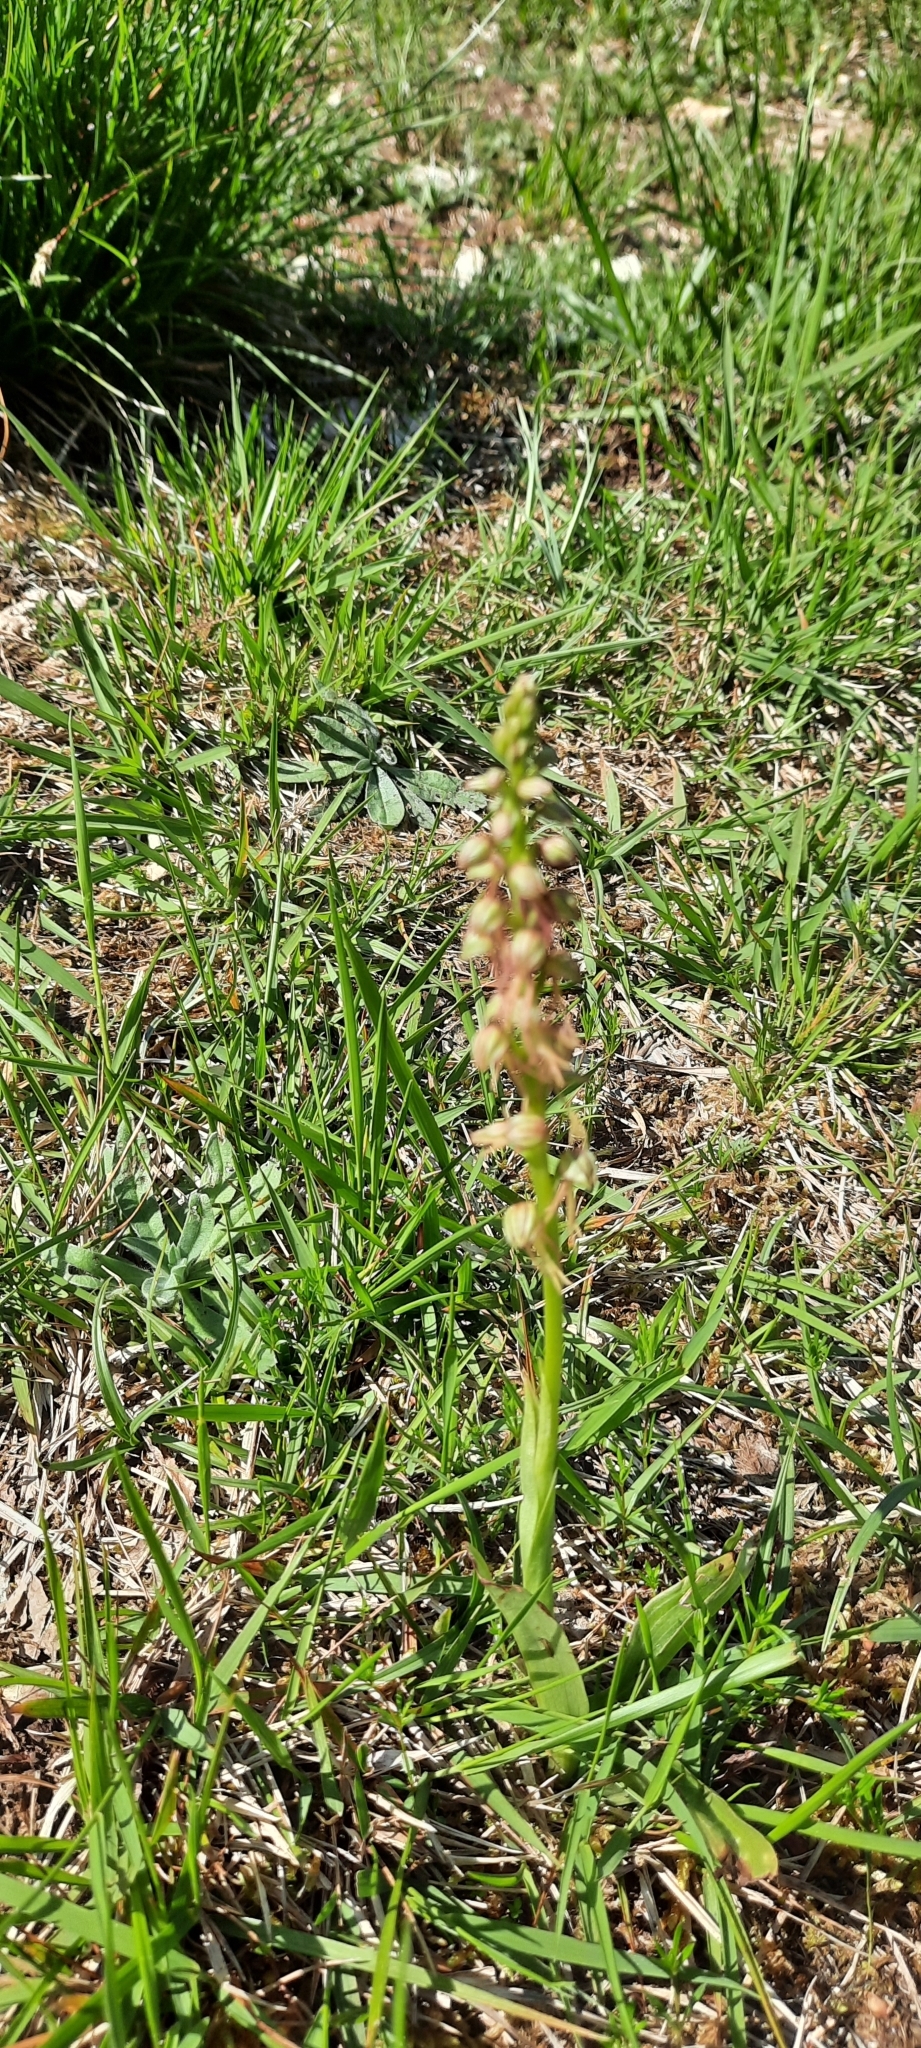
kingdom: Plantae
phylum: Tracheophyta
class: Liliopsida
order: Asparagales
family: Orchidaceae
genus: Orchis
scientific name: Orchis anthropophora
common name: Man orchid
